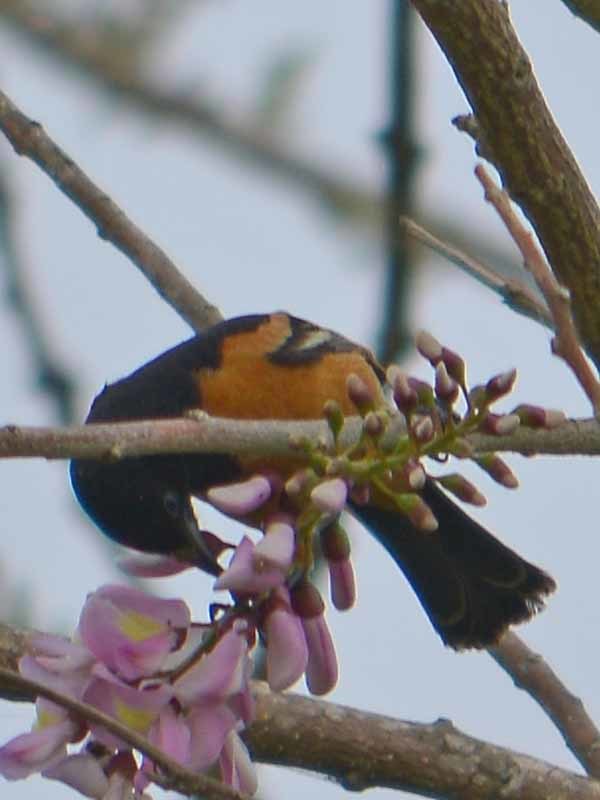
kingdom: Animalia
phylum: Chordata
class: Aves
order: Passeriformes
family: Icteridae
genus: Icterus
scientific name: Icterus galbula
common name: Baltimore oriole
